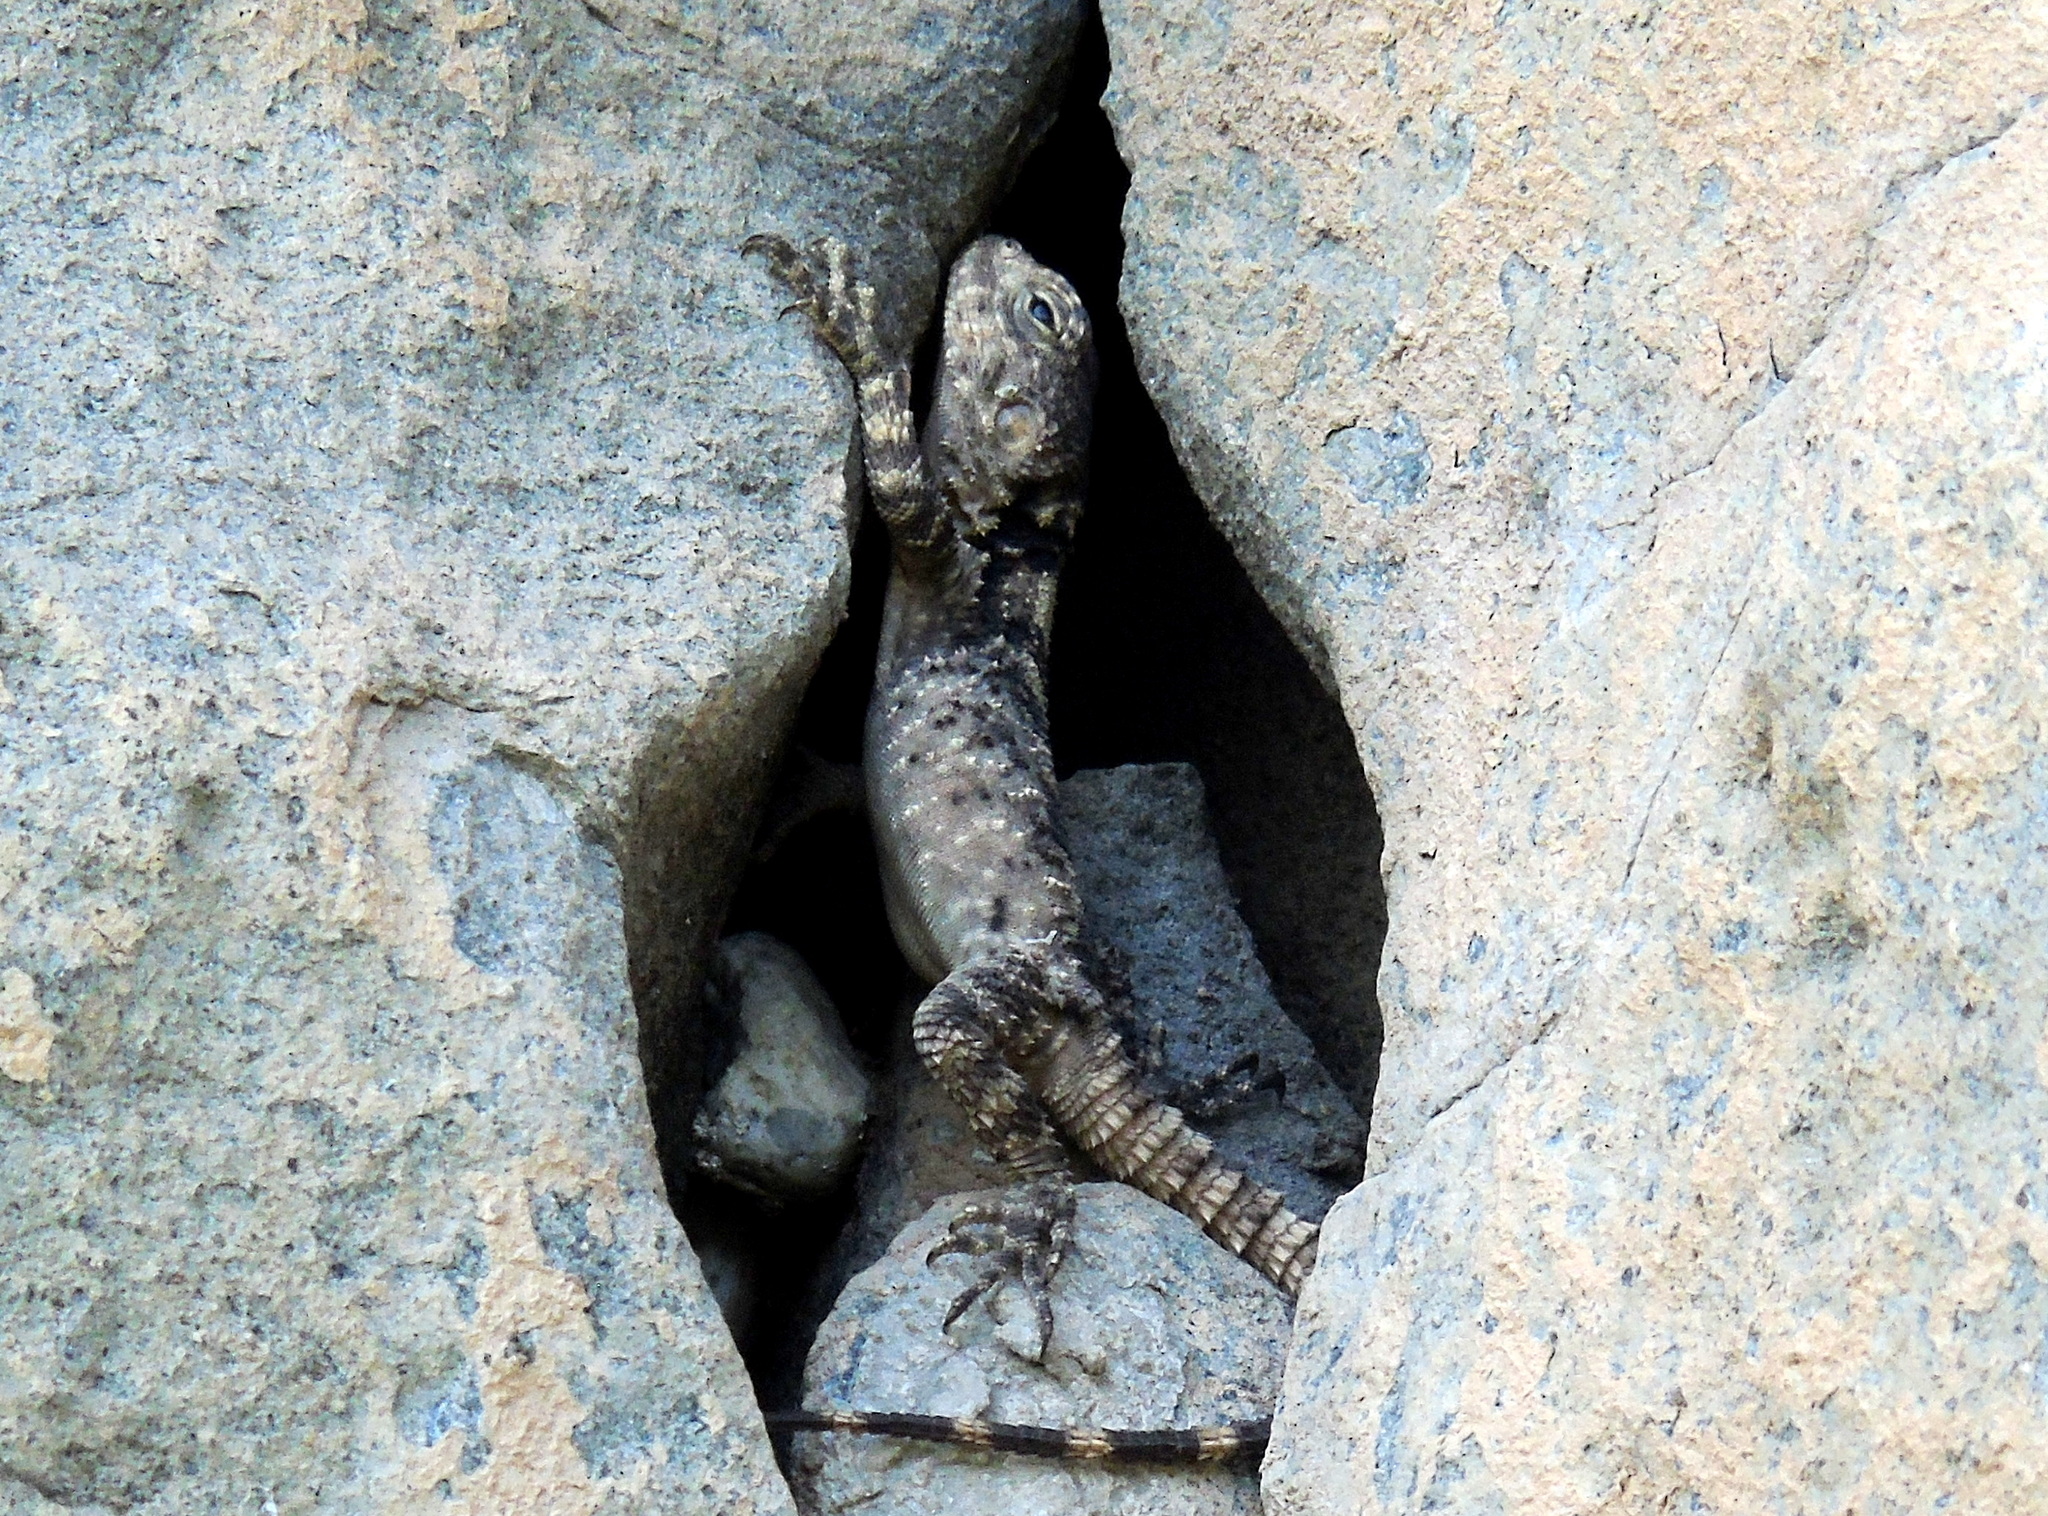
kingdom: Animalia
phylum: Chordata
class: Squamata
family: Agamidae
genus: Stellagama
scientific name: Stellagama stellio
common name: Starred agama
